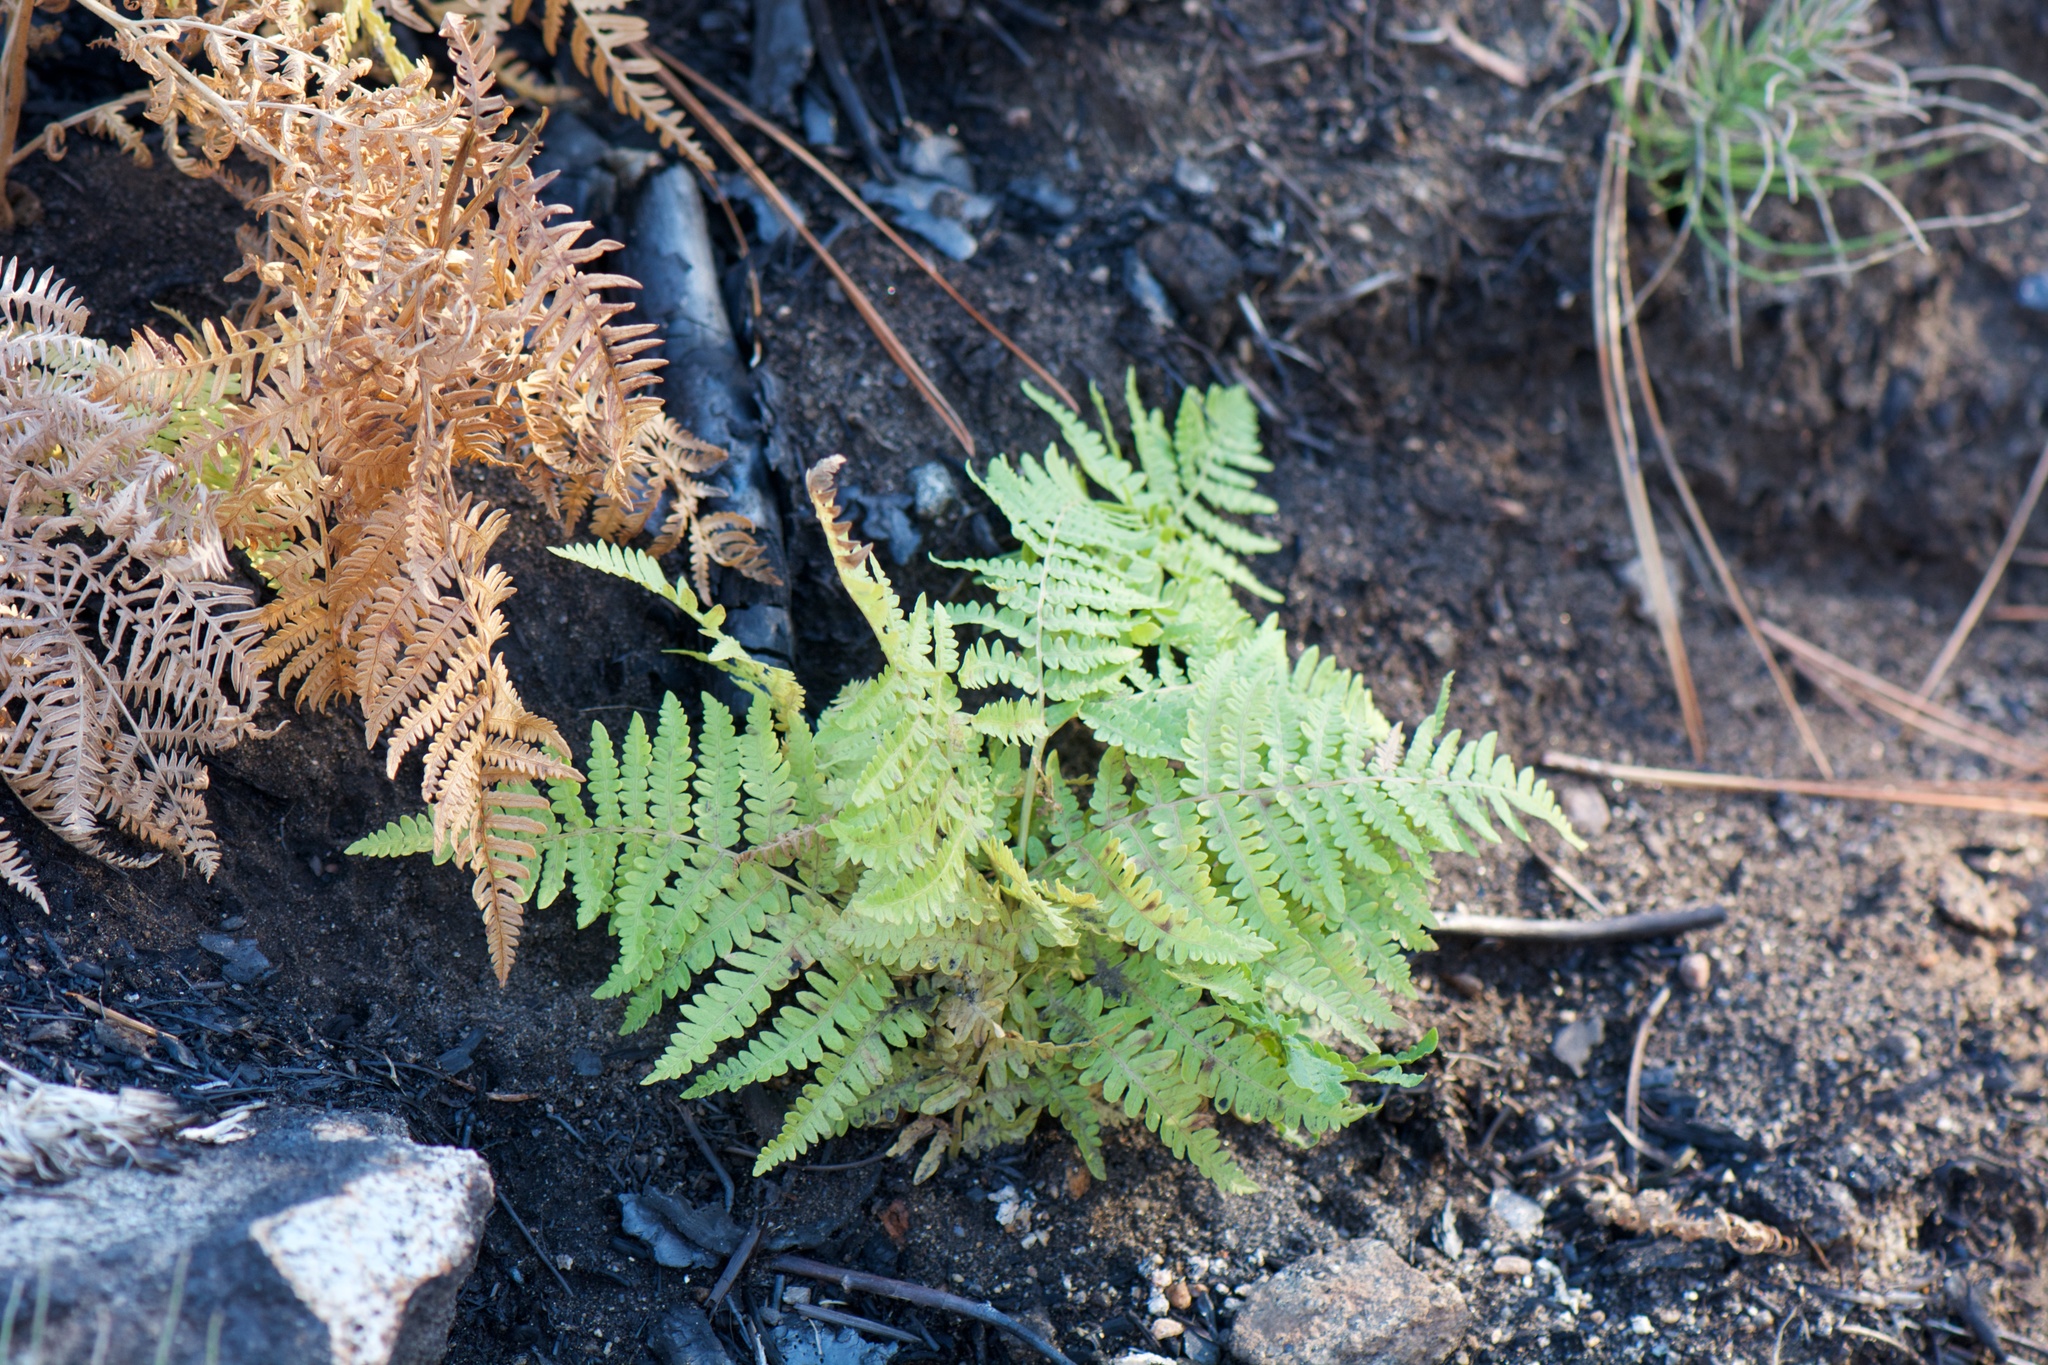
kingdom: Plantae
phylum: Tracheophyta
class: Polypodiopsida
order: Polypodiales
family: Dennstaedtiaceae
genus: Pteridium
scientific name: Pteridium aquilinum
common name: Bracken
